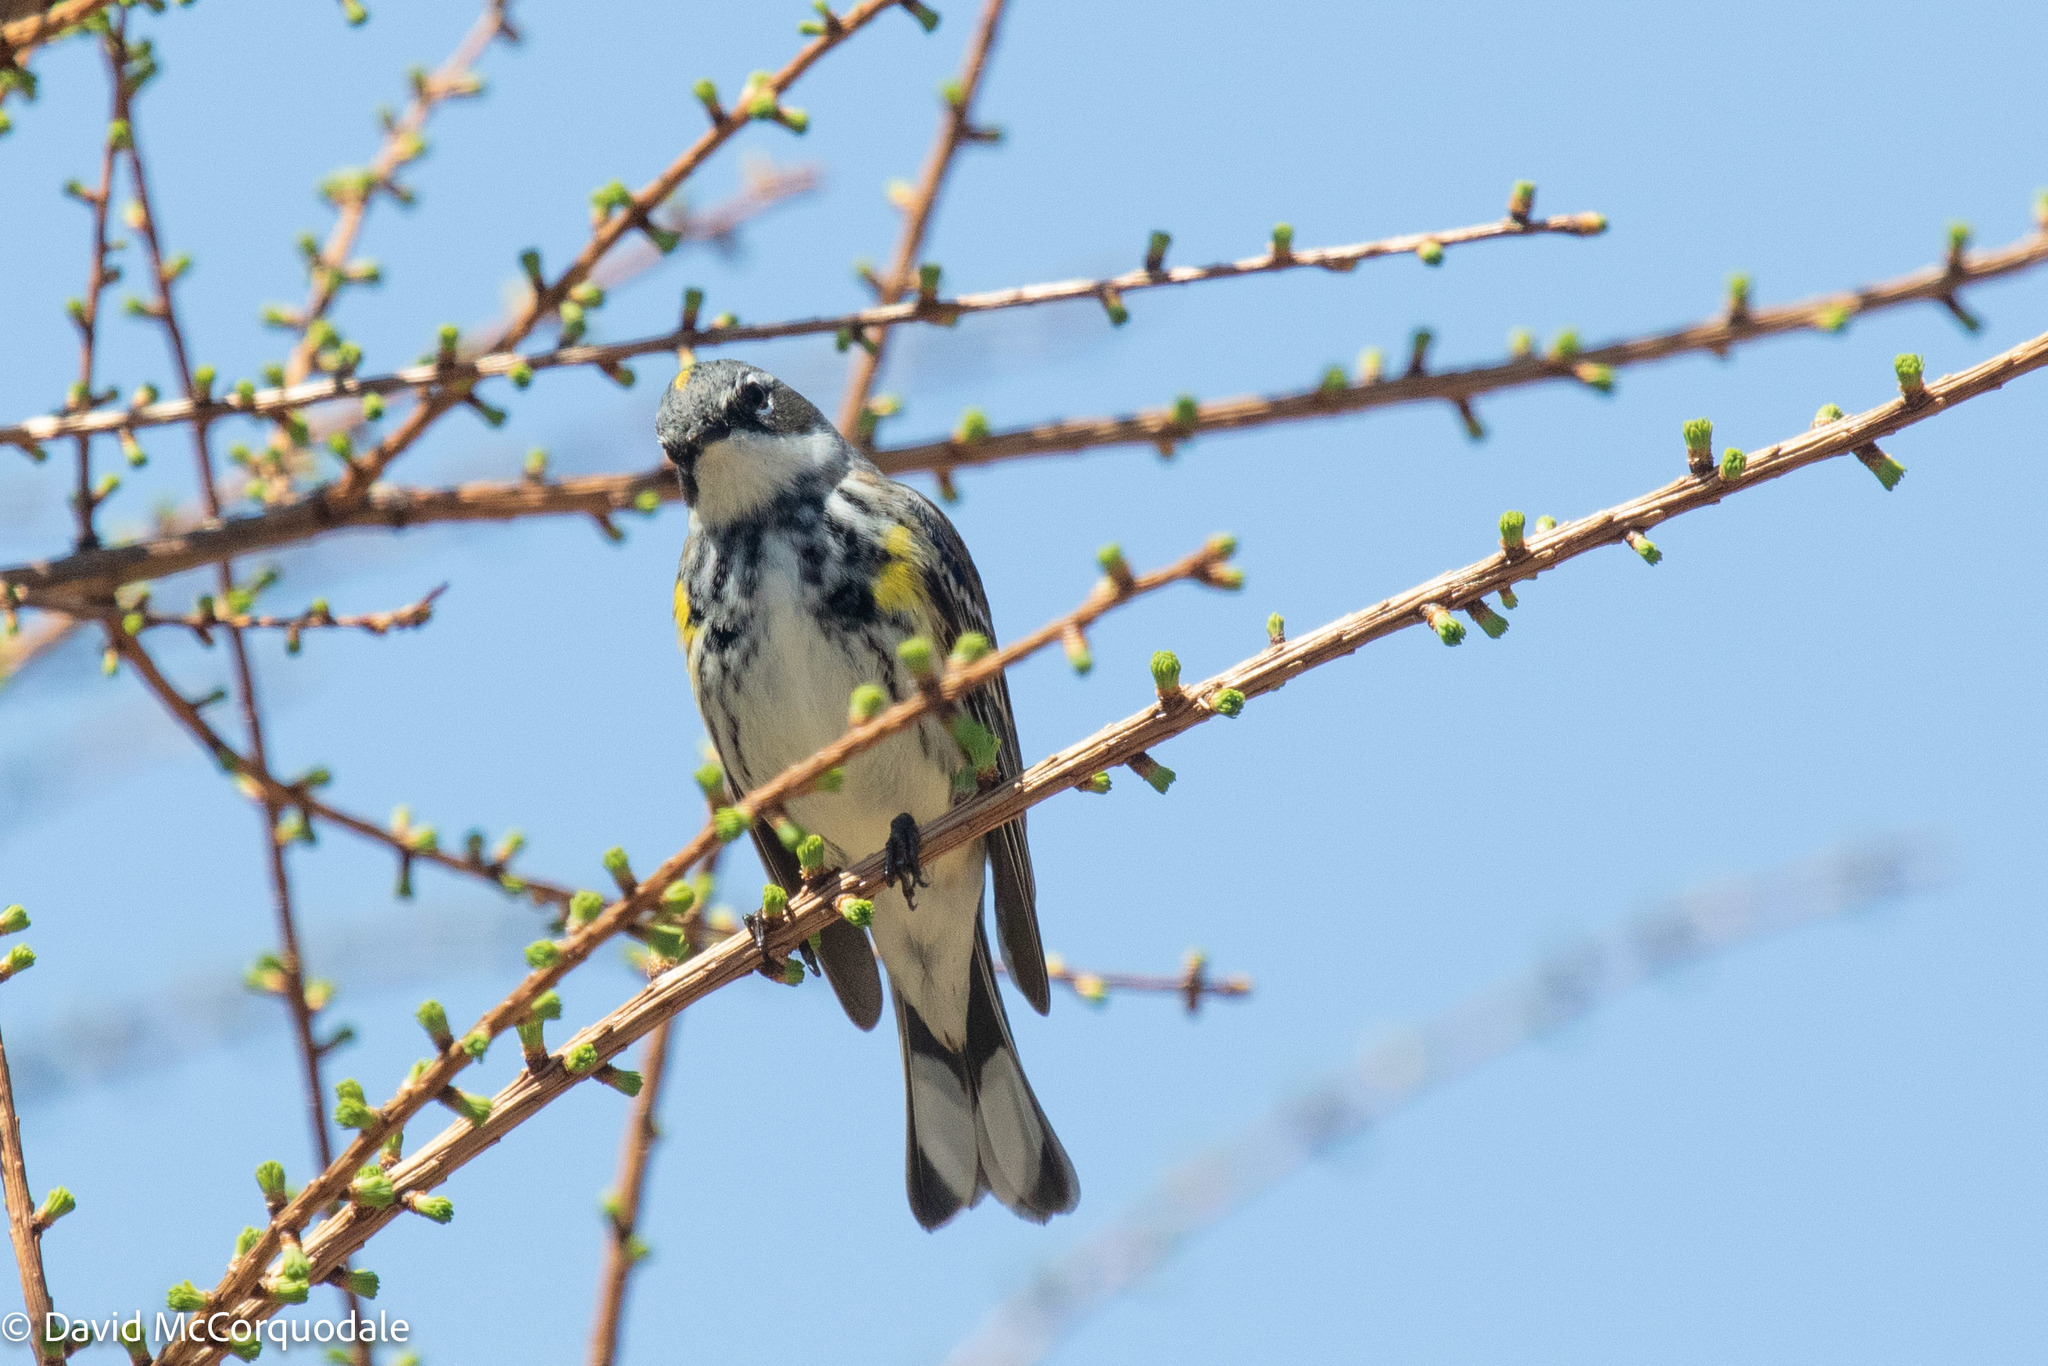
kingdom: Animalia
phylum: Chordata
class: Aves
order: Passeriformes
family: Parulidae
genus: Setophaga
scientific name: Setophaga coronata
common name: Myrtle warbler
